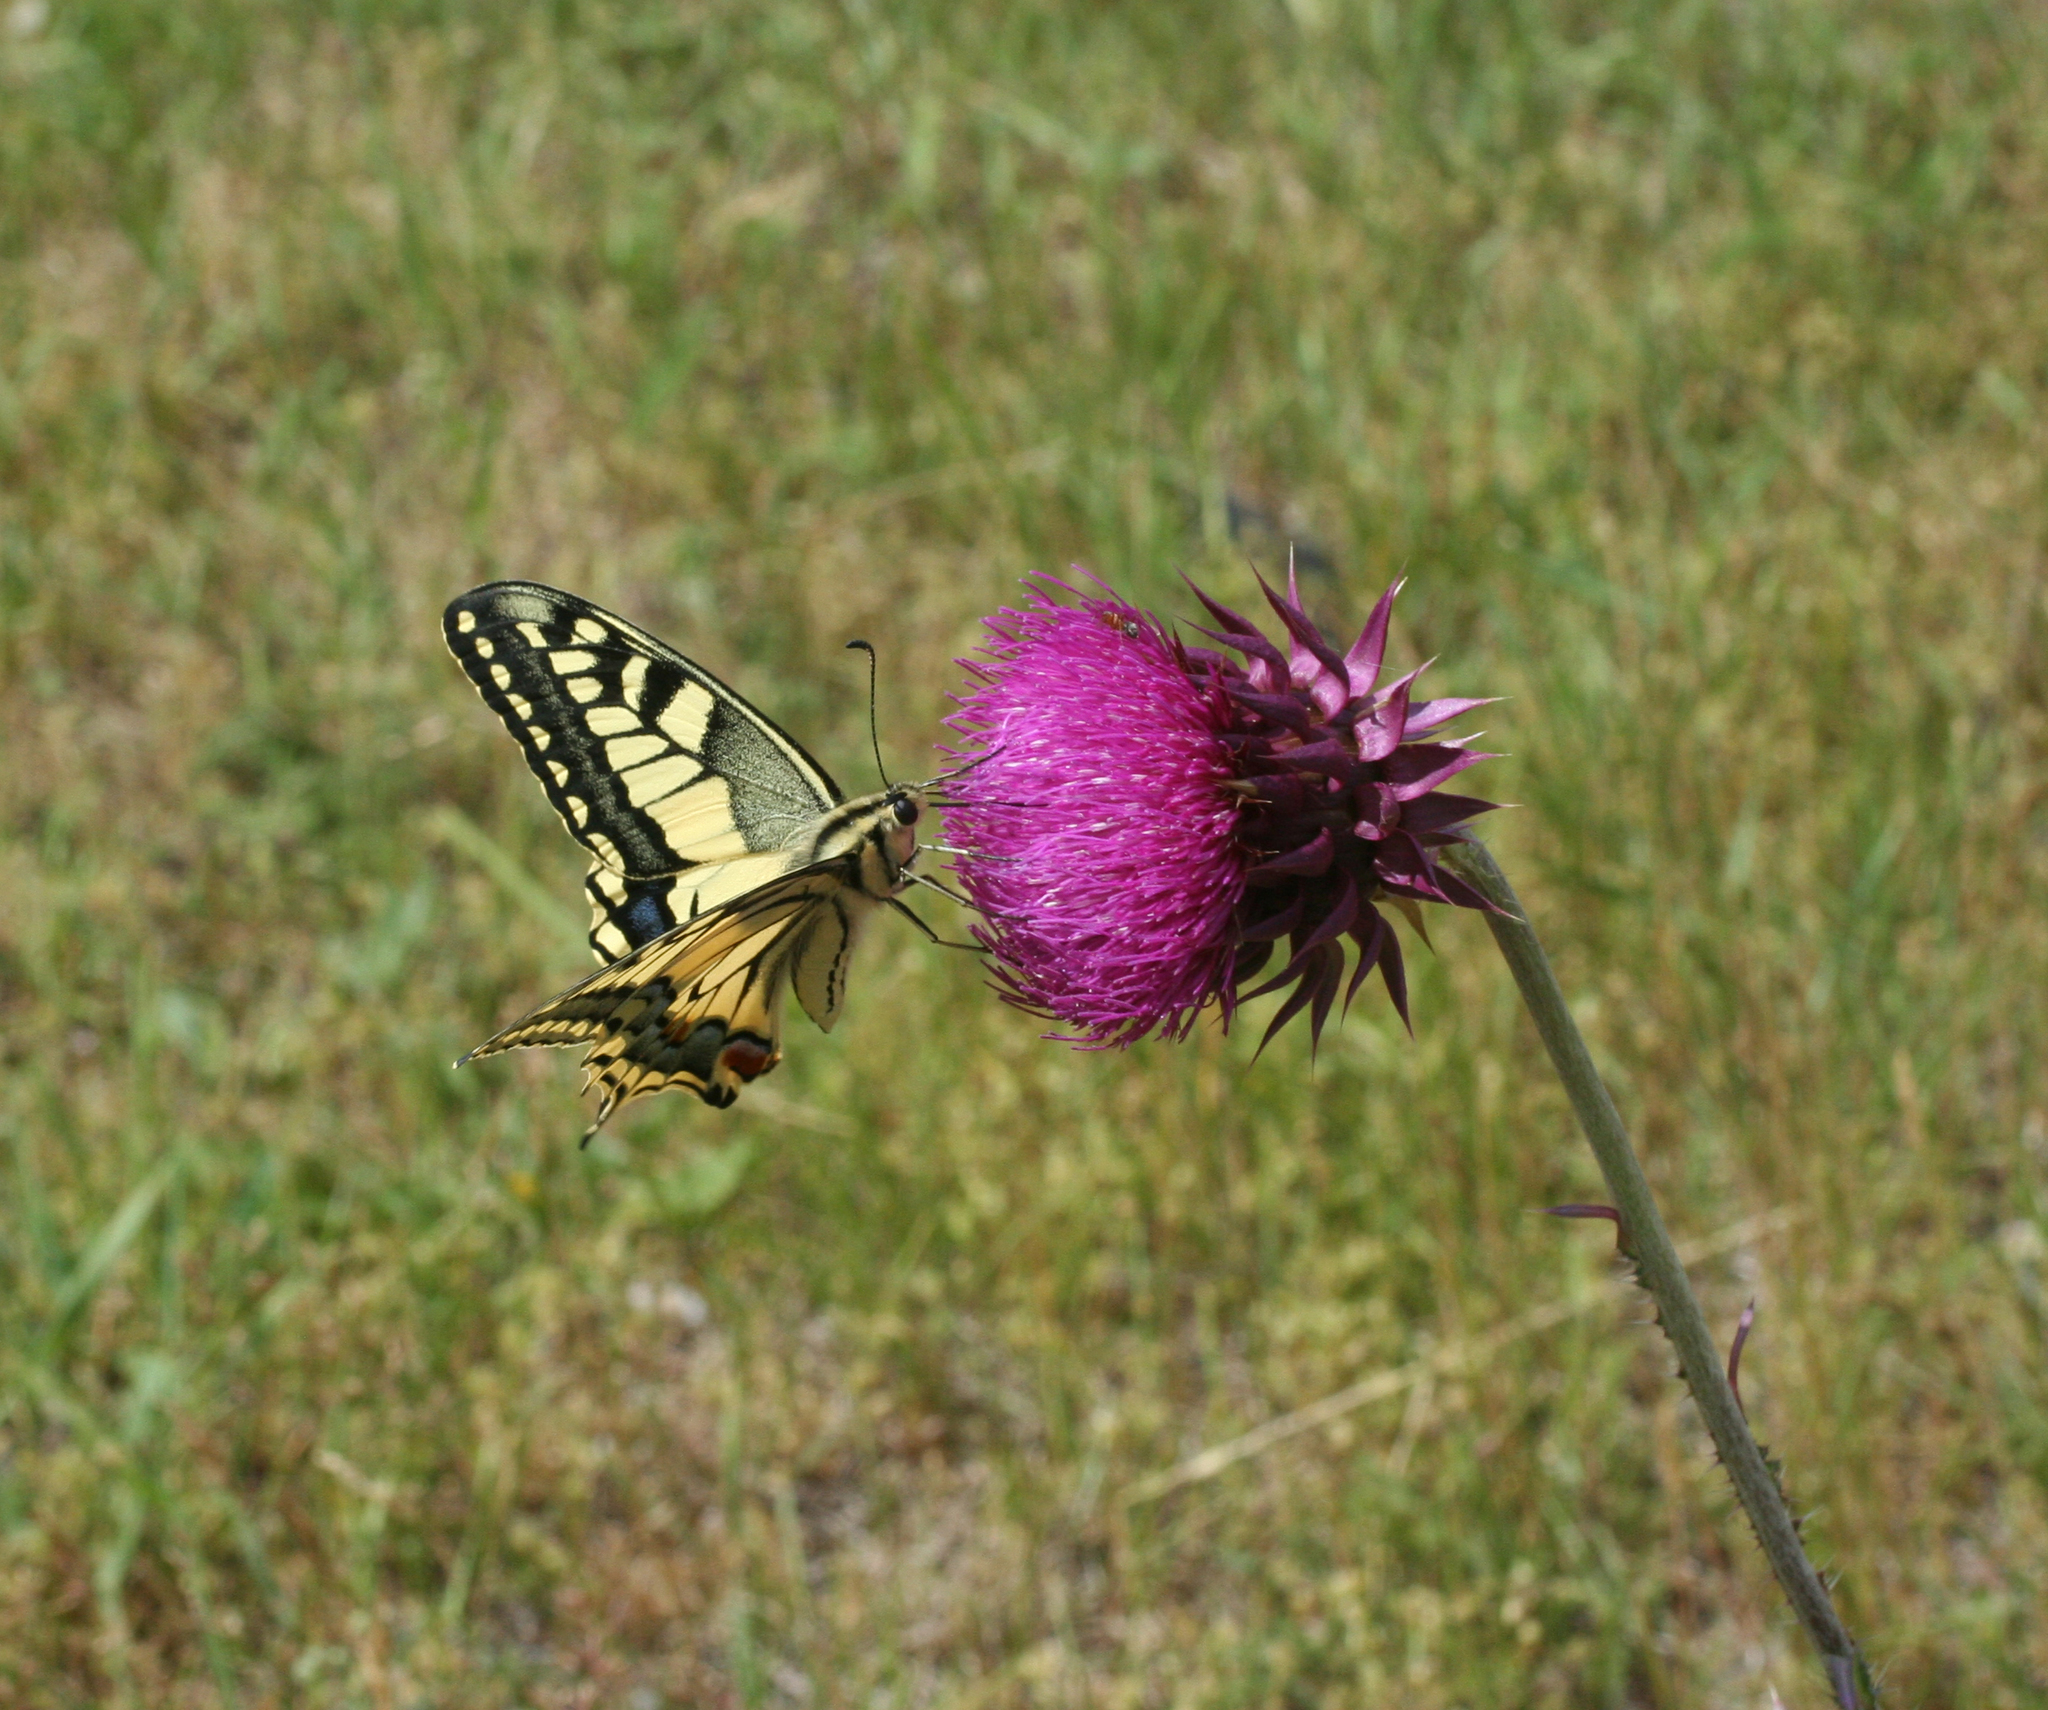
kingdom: Plantae
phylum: Tracheophyta
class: Magnoliopsida
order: Asterales
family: Asteraceae
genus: Carduus
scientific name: Carduus nutans
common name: Musk thistle
